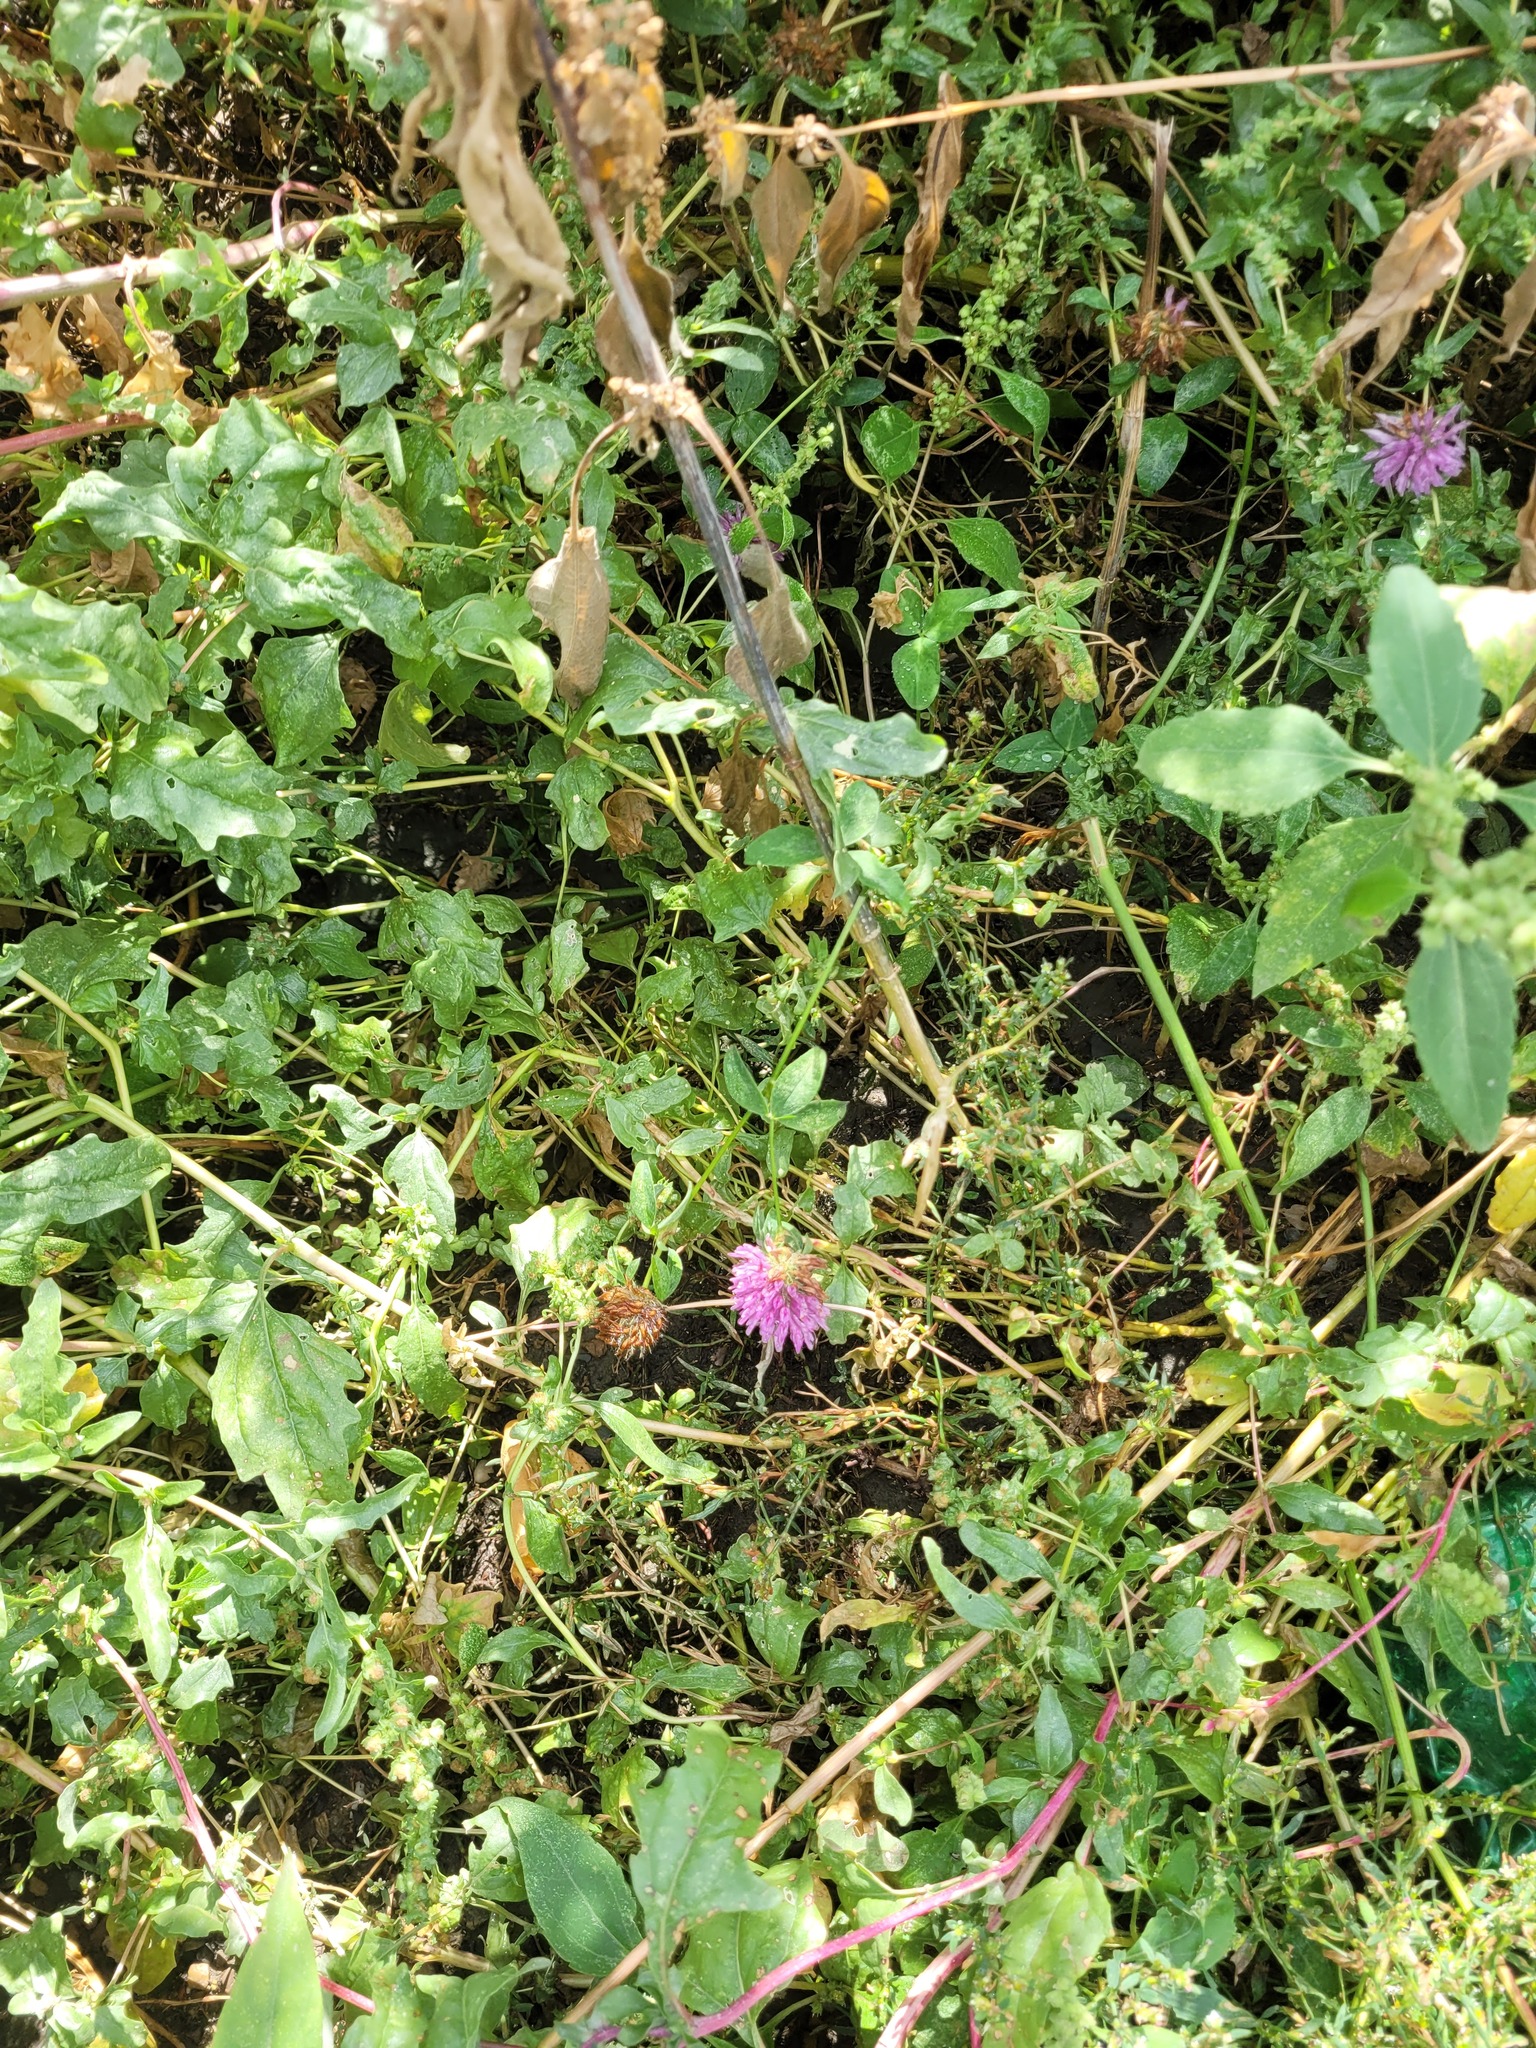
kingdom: Plantae
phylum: Tracheophyta
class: Magnoliopsida
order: Fabales
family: Fabaceae
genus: Trifolium
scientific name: Trifolium pratense
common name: Red clover
